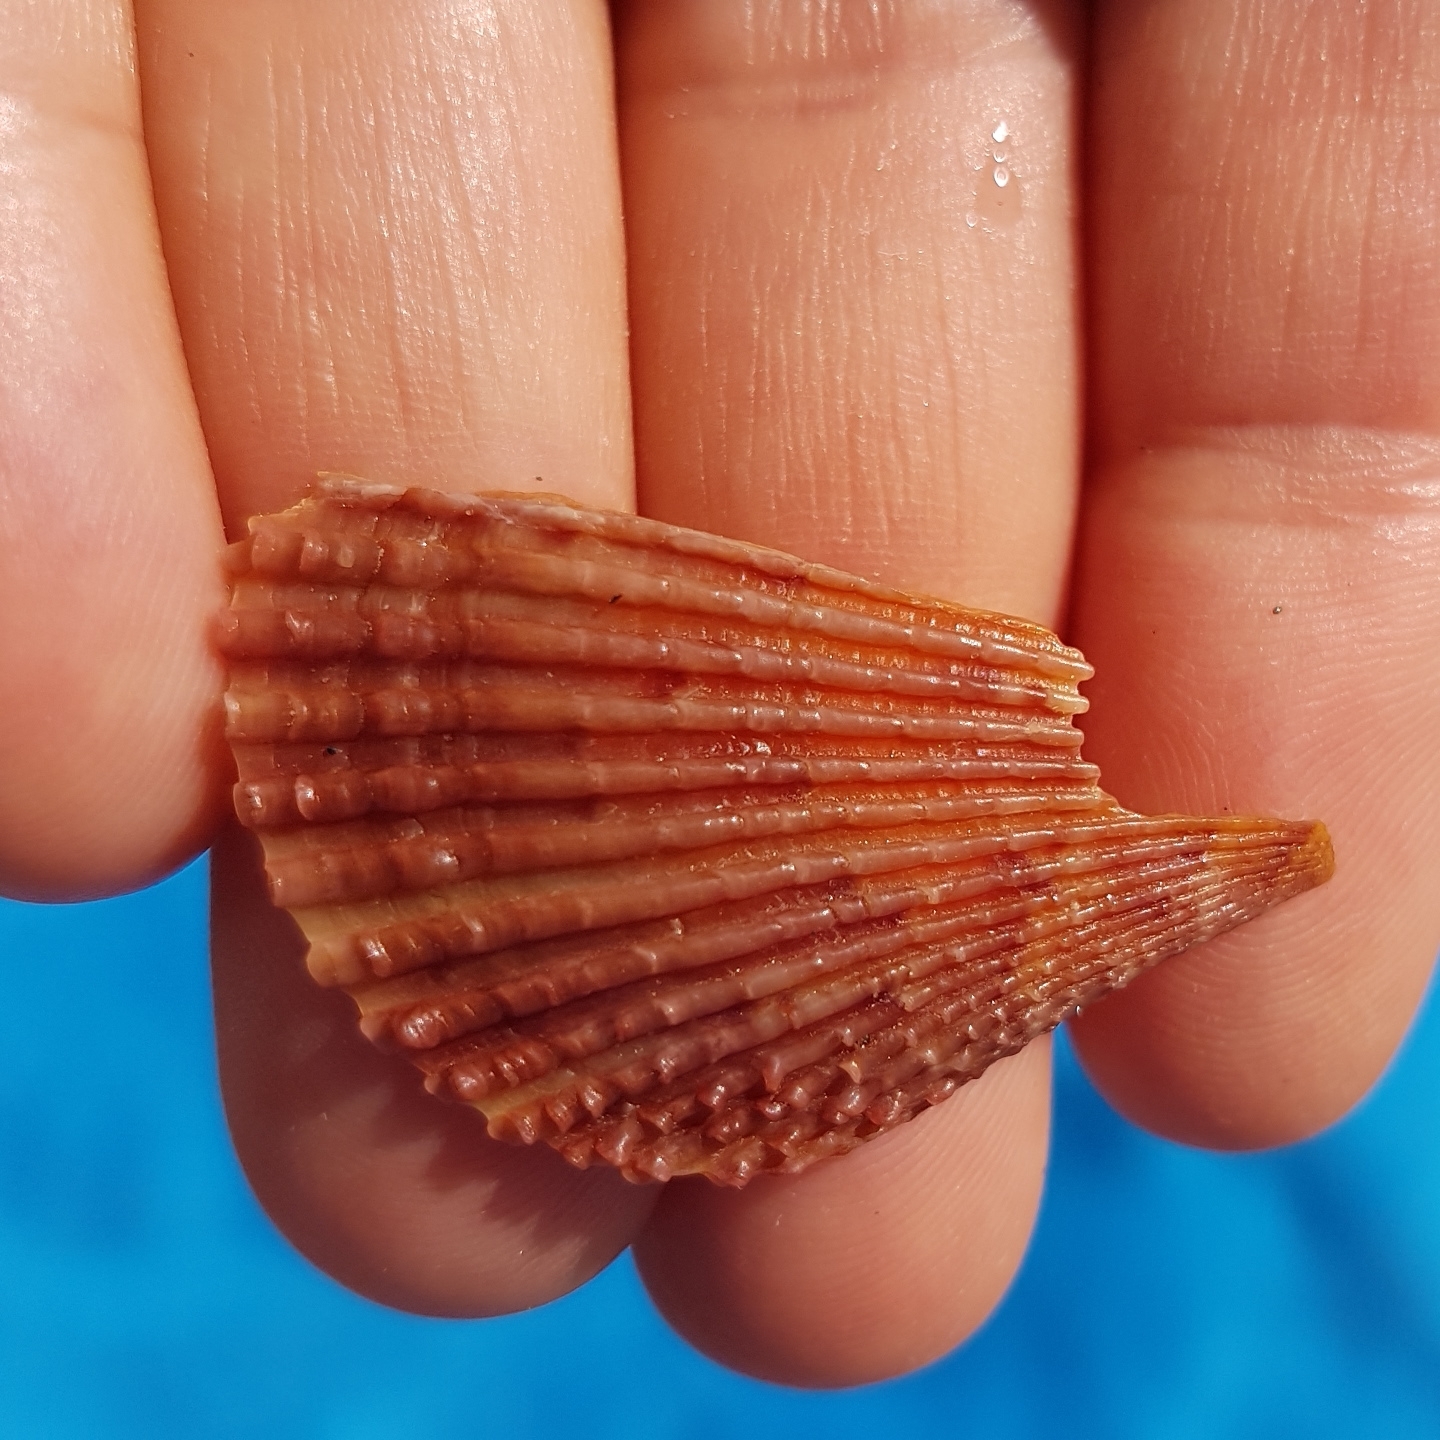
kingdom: Animalia
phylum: Mollusca
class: Bivalvia
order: Pectinida
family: Pectinidae
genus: Mimachlamys
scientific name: Mimachlamys varia
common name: Variegated scallop
